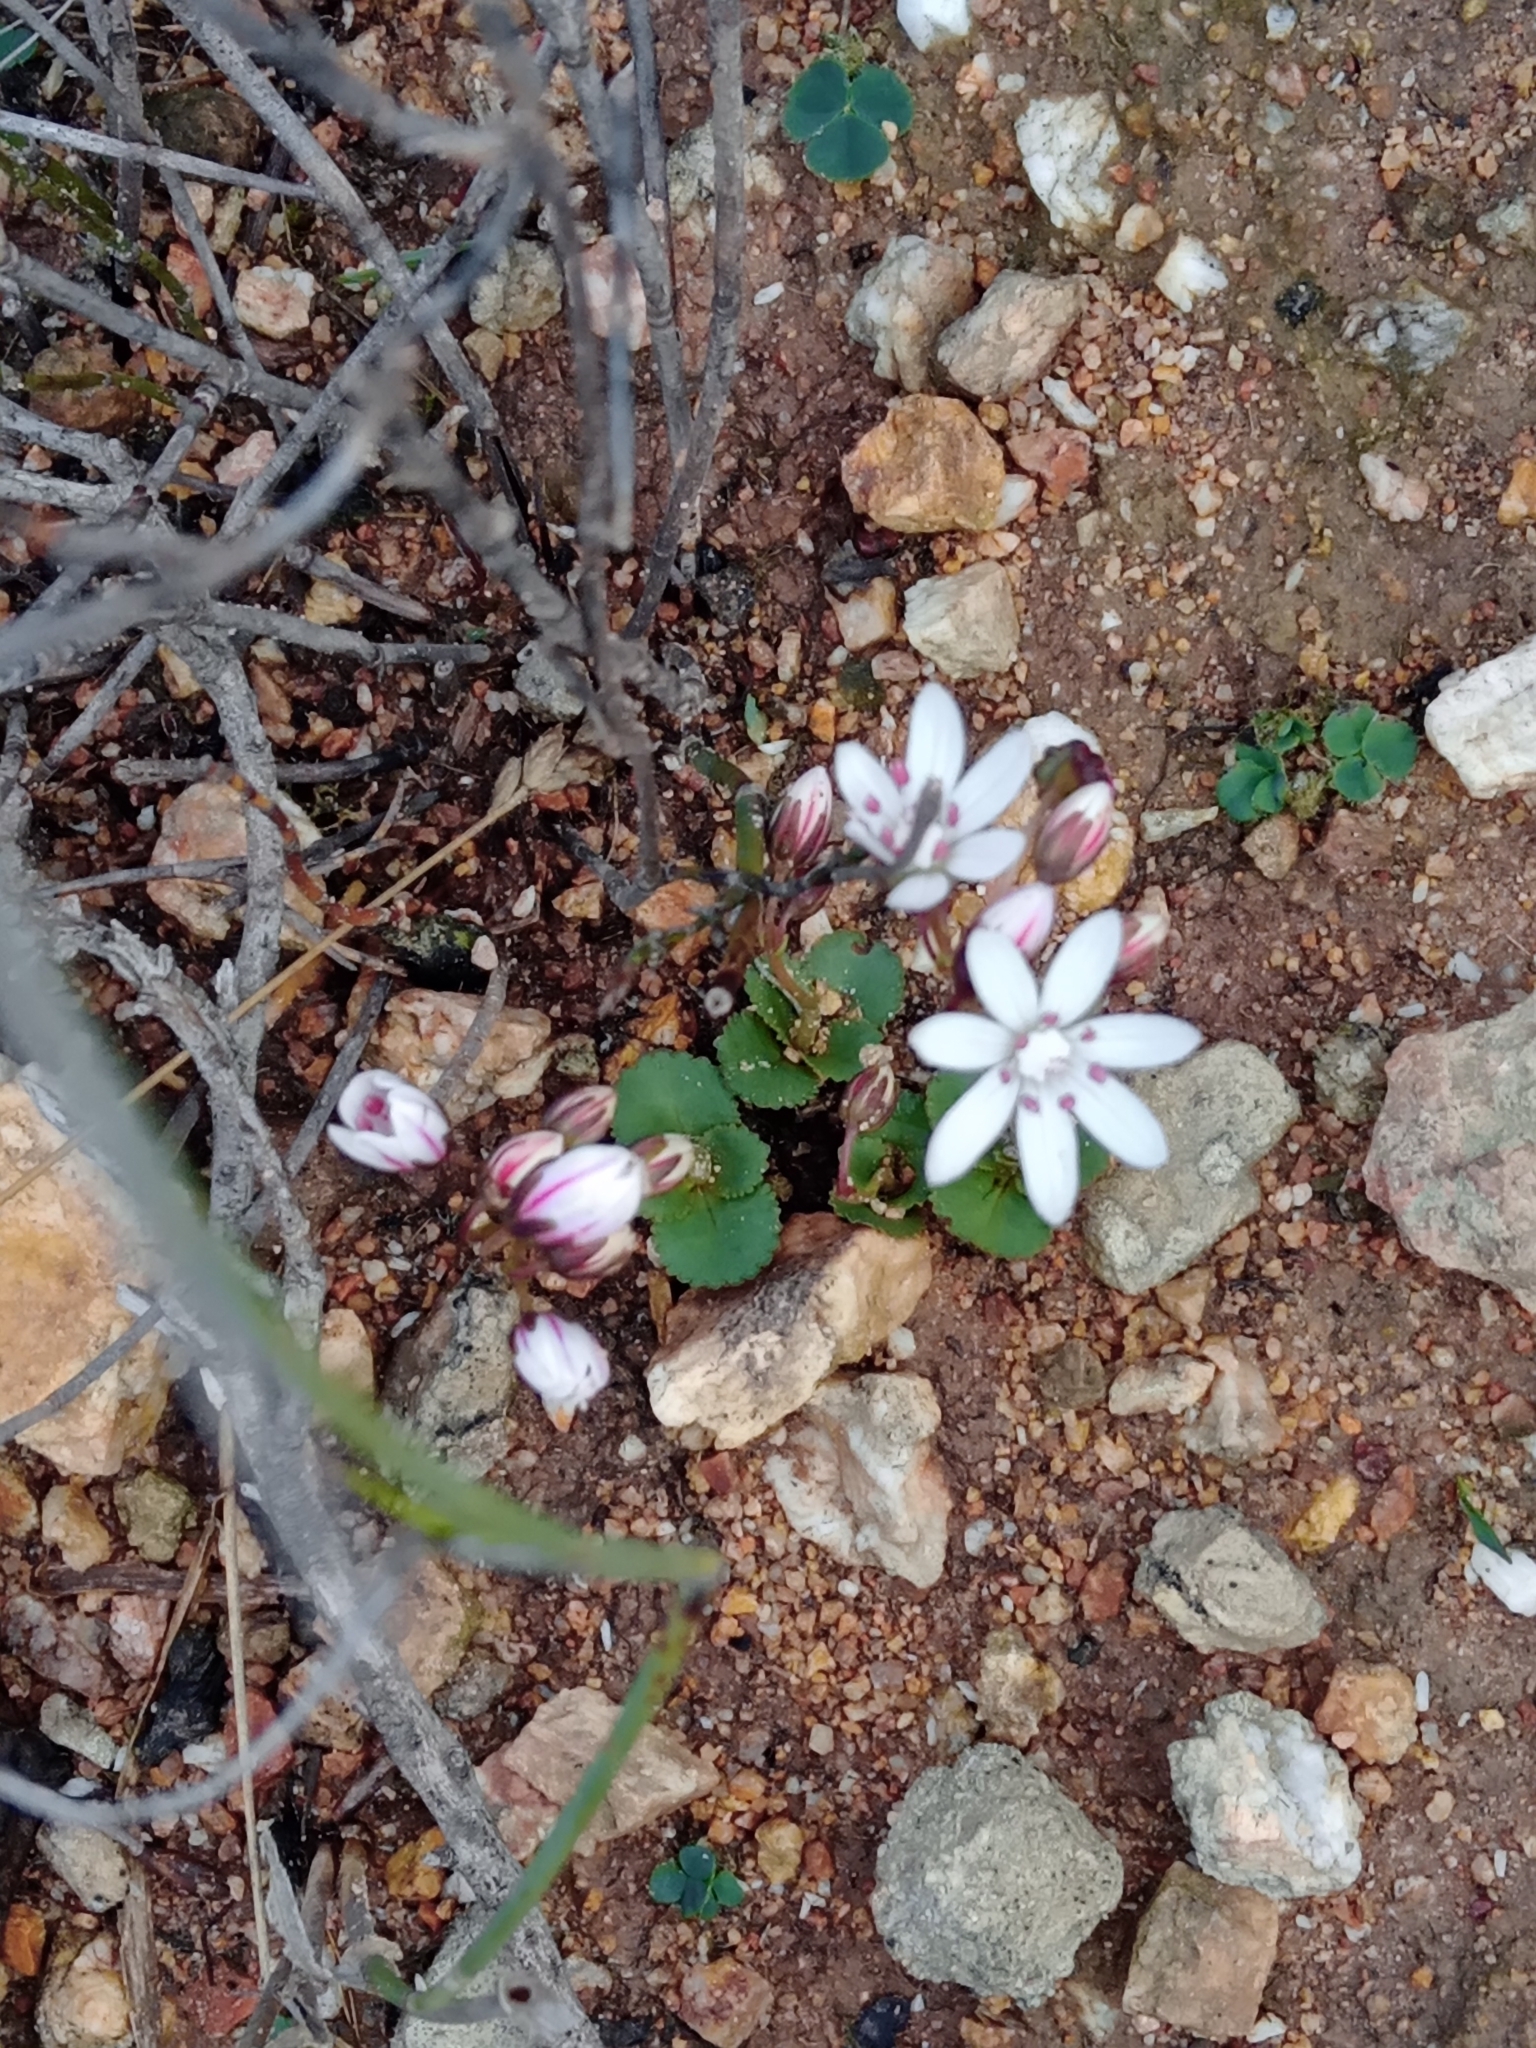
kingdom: Plantae
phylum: Tracheophyta
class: Magnoliopsida
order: Saxifragales
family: Crassulaceae
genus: Crassula
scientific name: Crassula capensis
